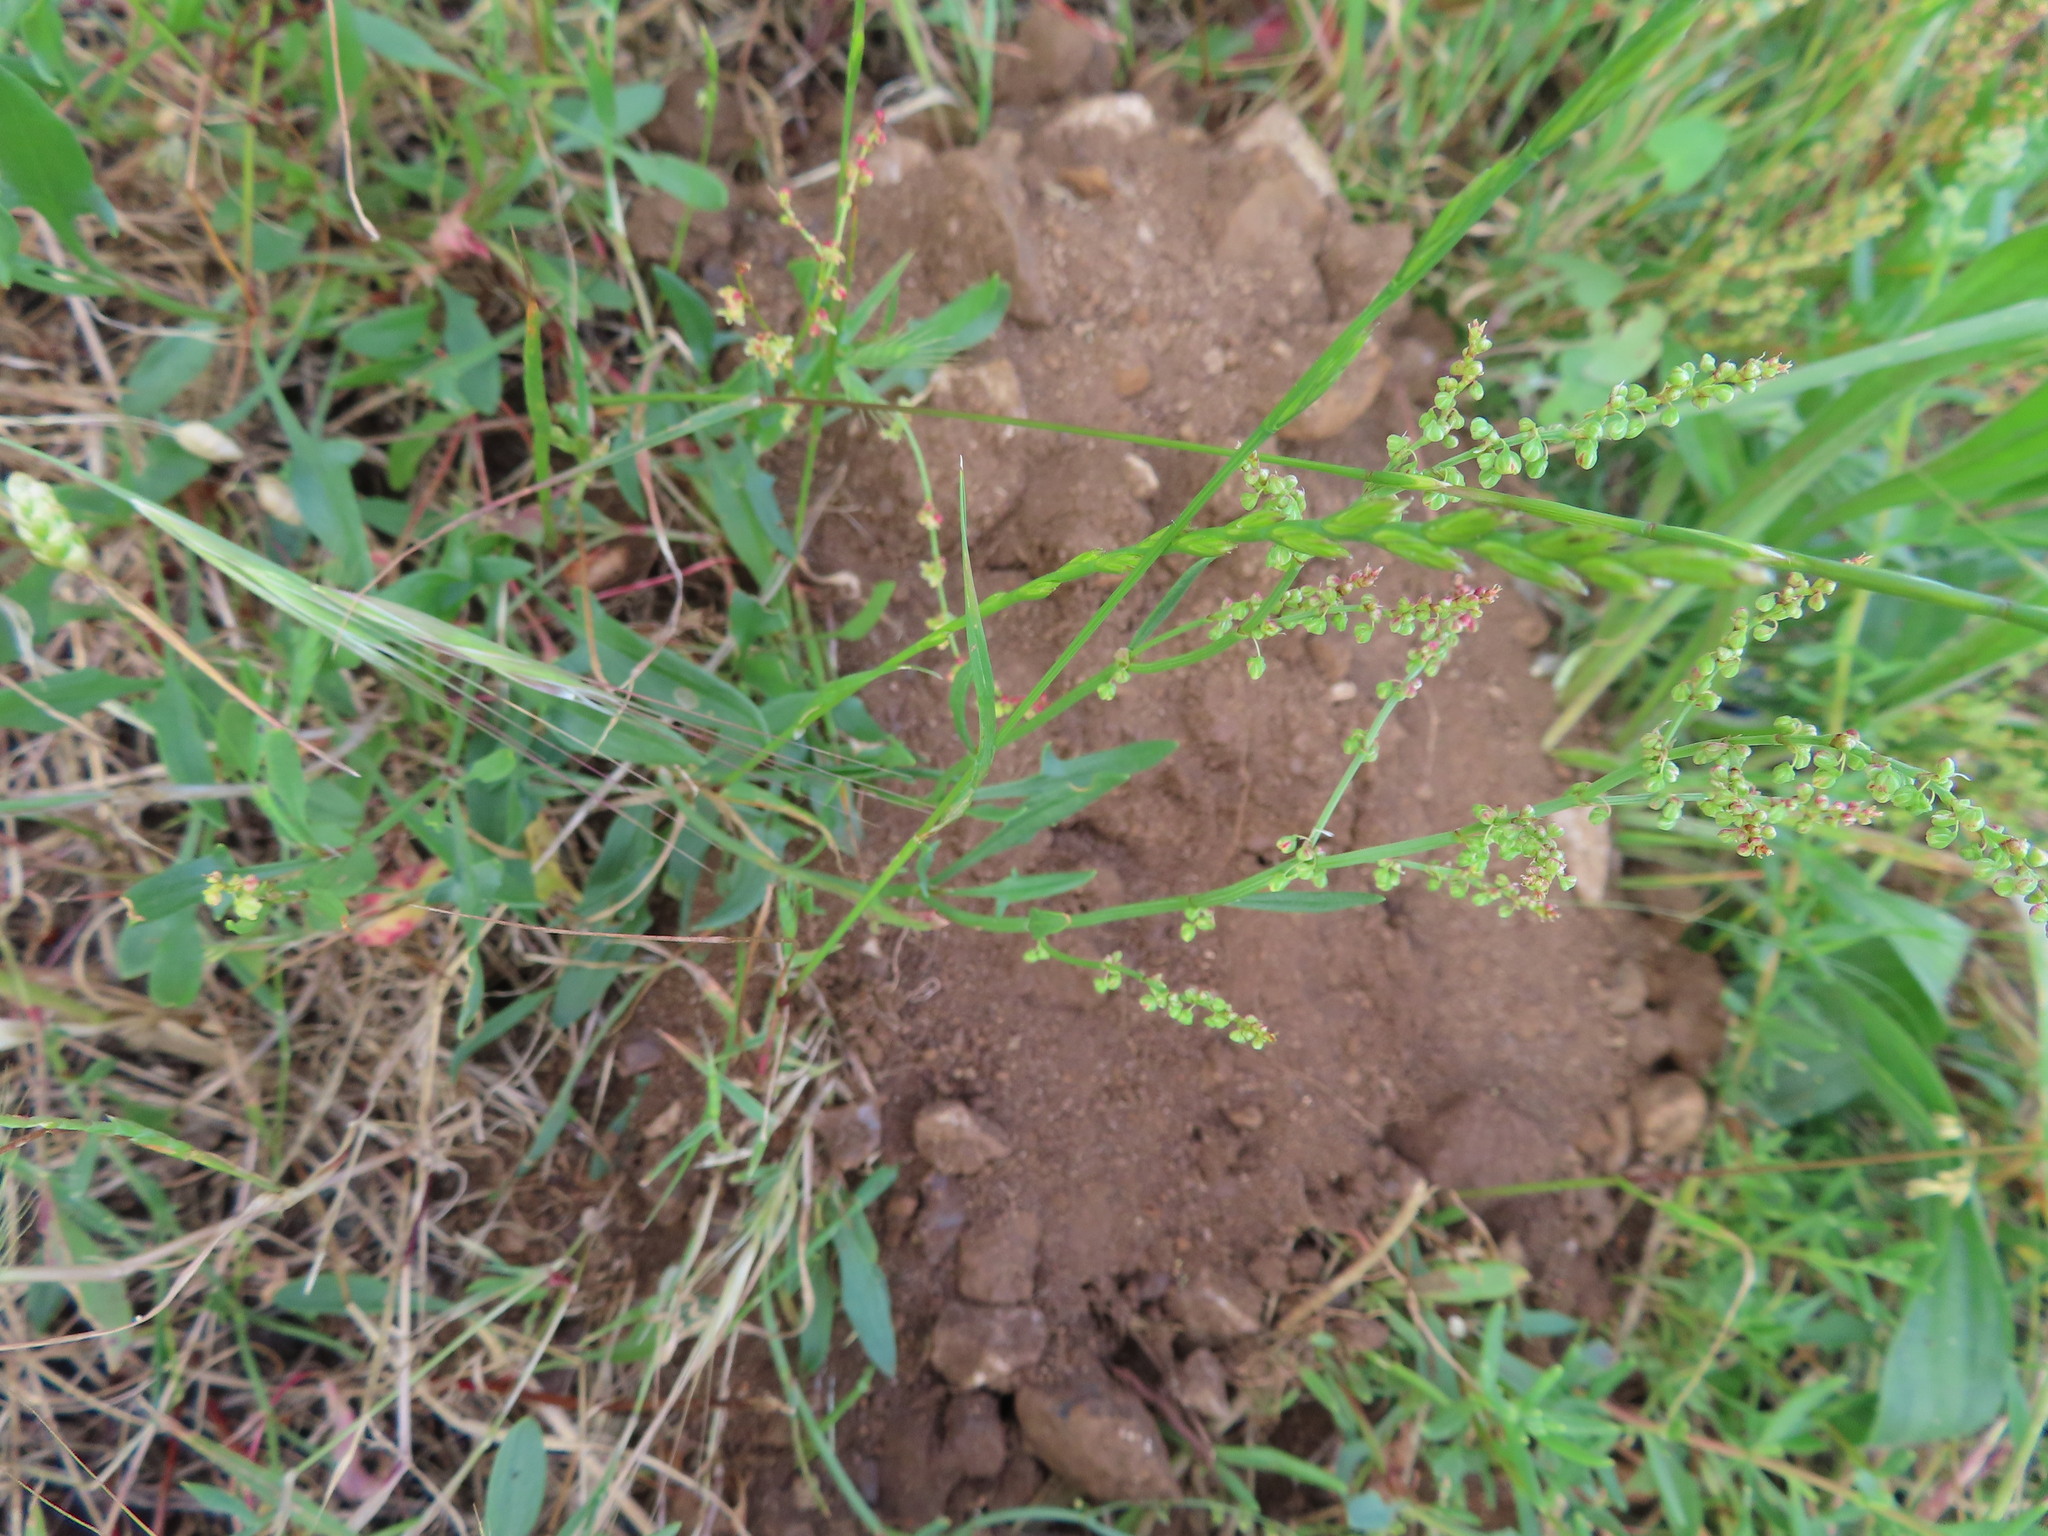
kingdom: Plantae
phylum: Tracheophyta
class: Magnoliopsida
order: Caryophyllales
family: Polygonaceae
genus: Rumex
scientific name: Rumex acetosella
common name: Common sheep sorrel
